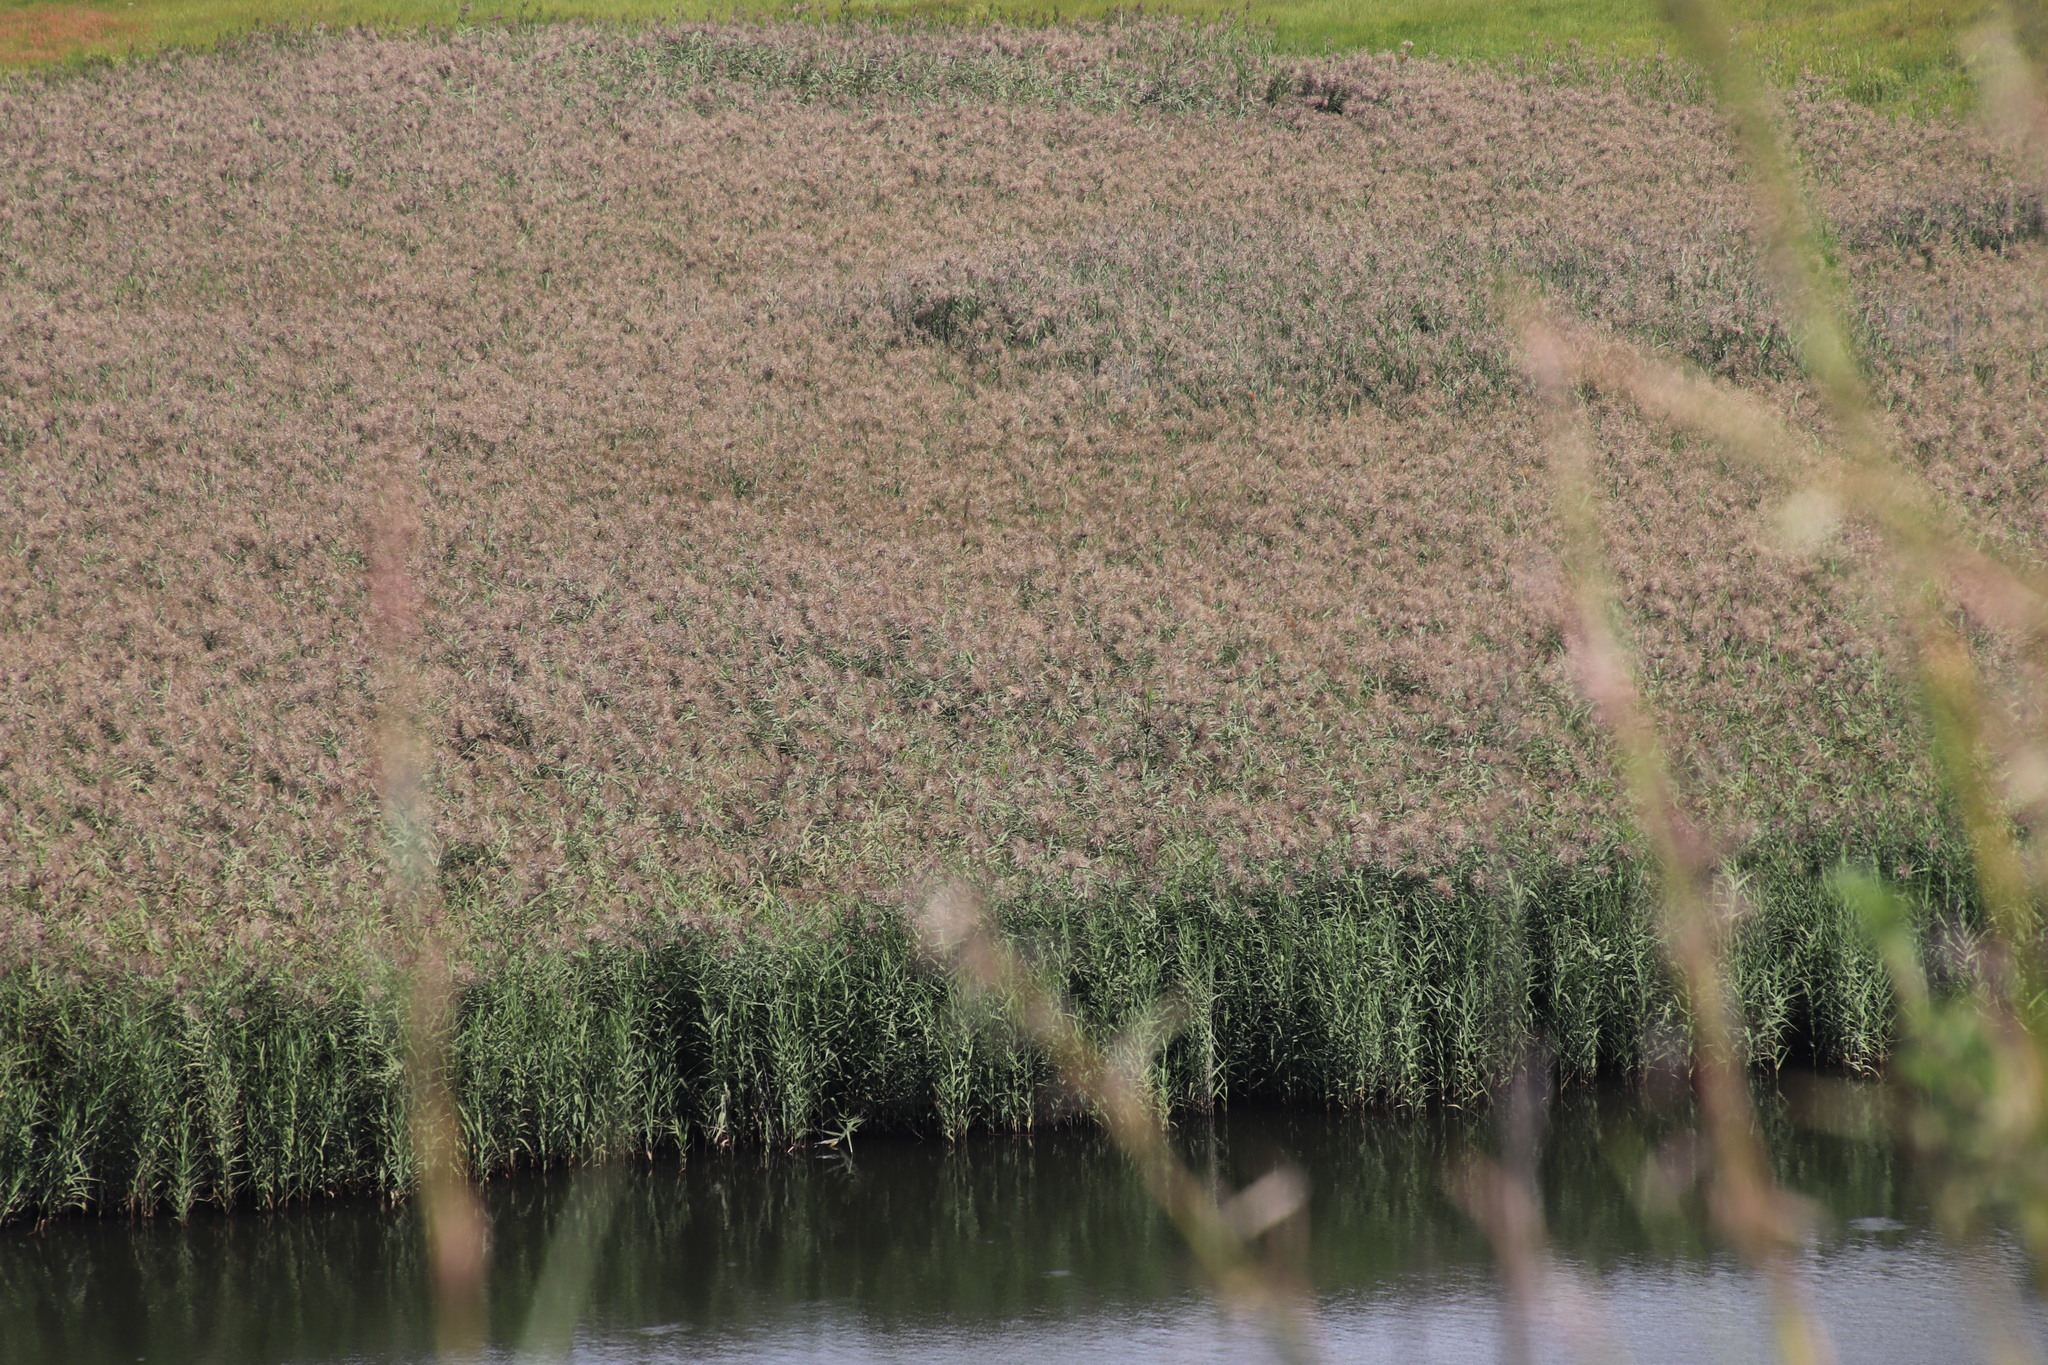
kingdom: Plantae
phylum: Tracheophyta
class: Liliopsida
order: Poales
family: Poaceae
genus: Phragmites
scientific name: Phragmites australis
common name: Common reed
